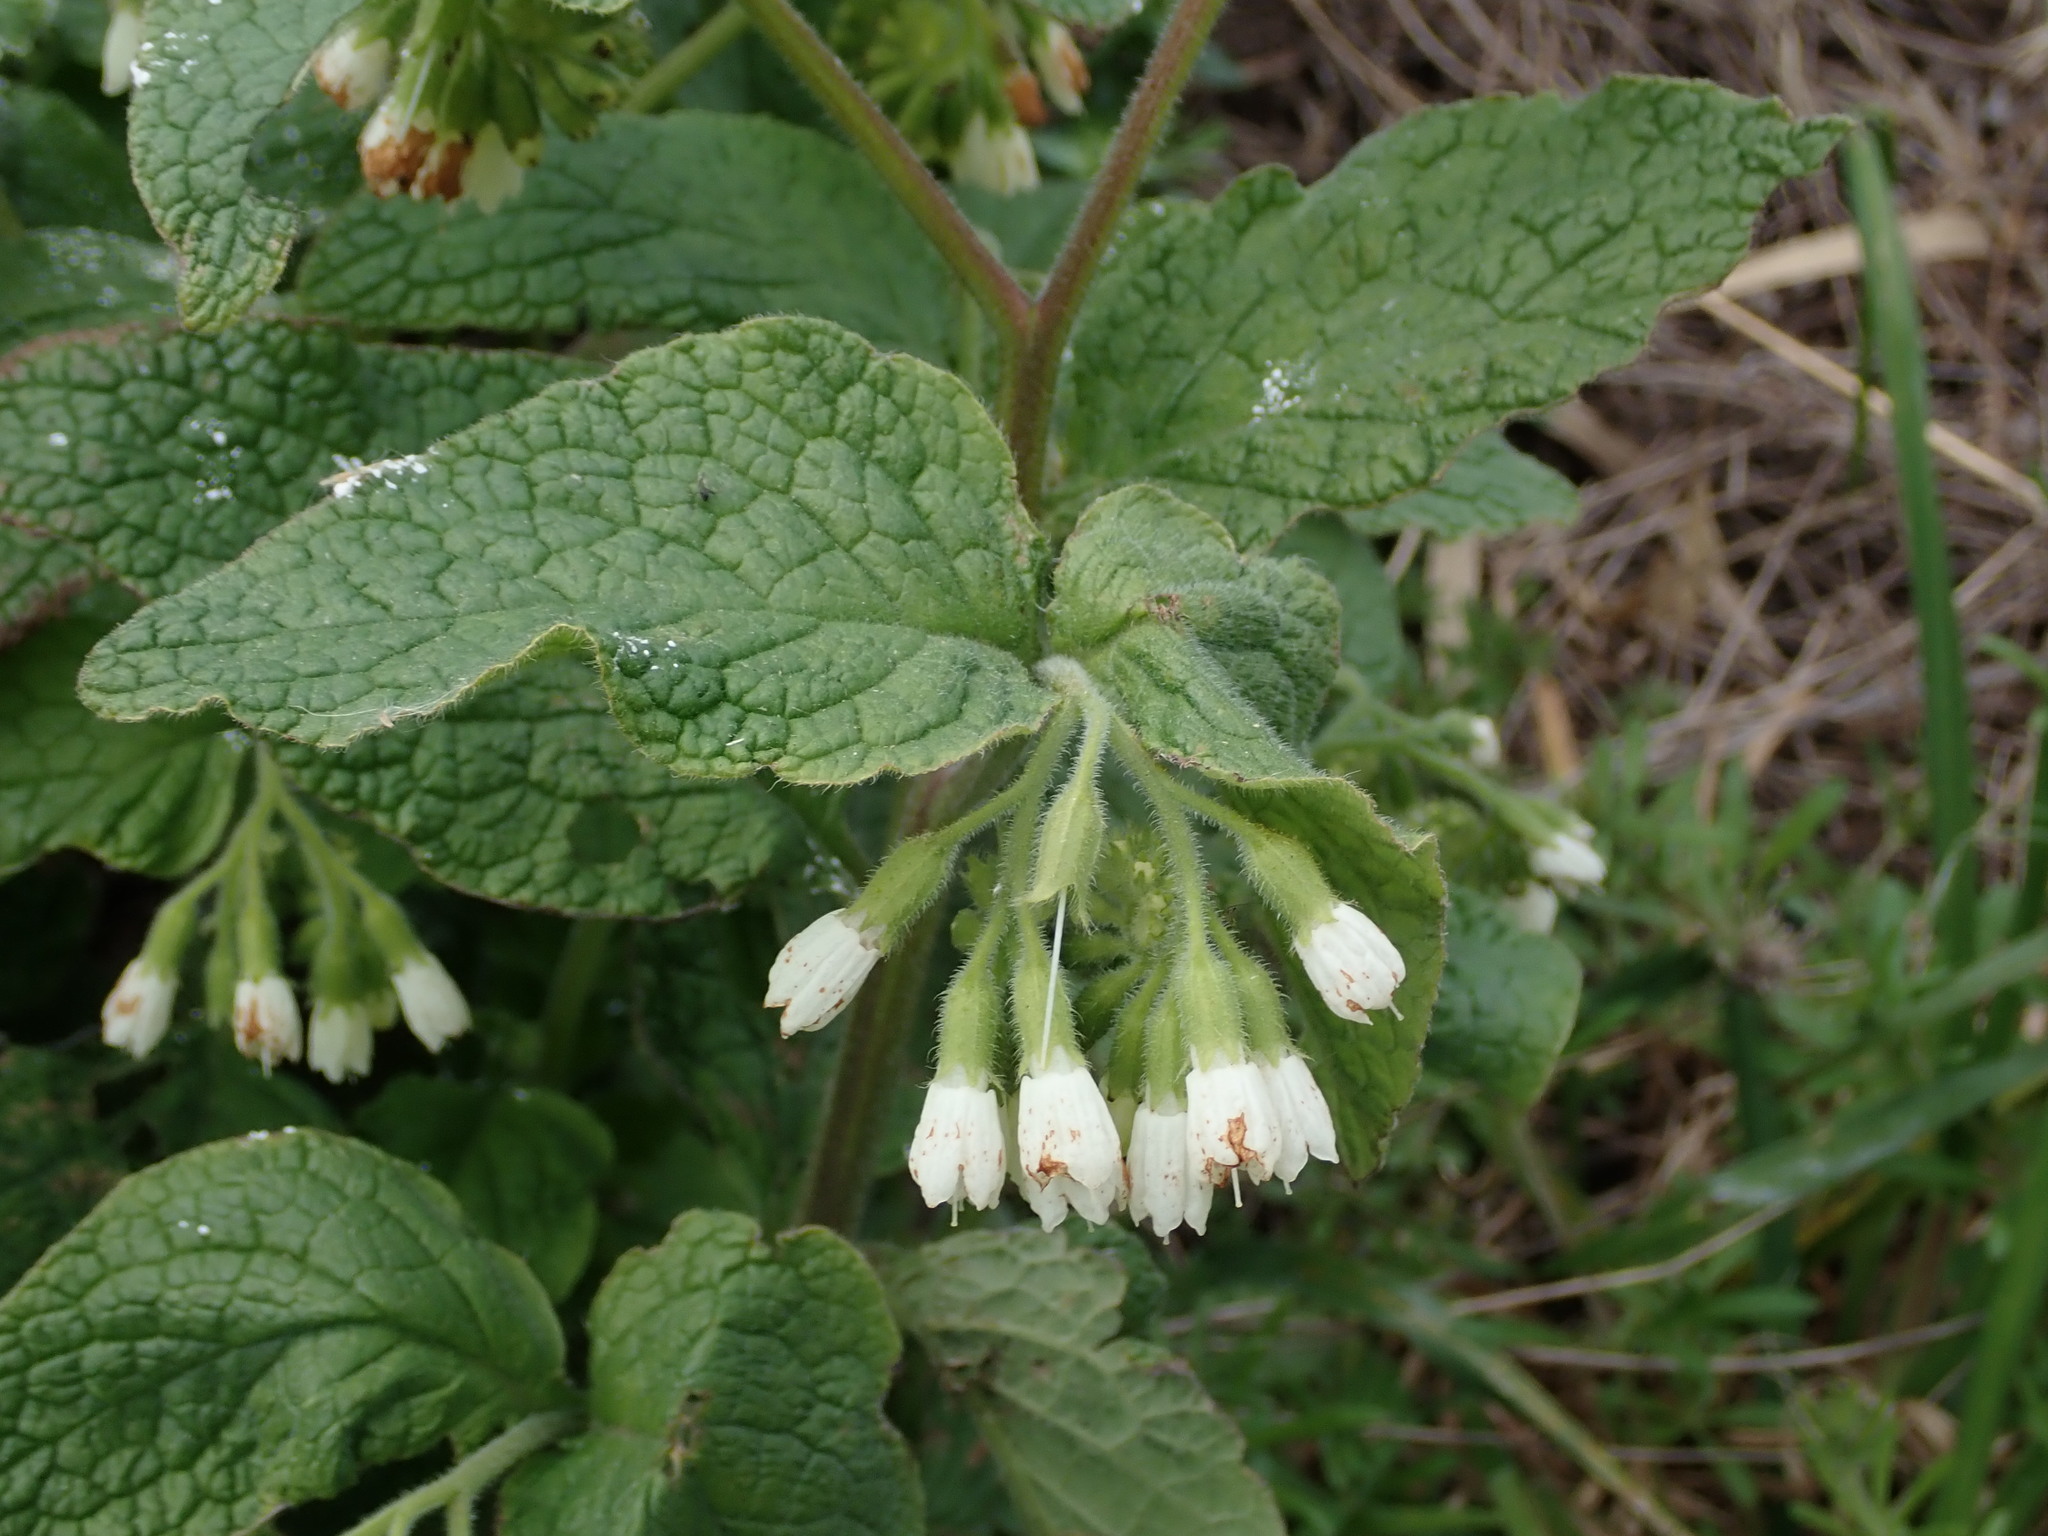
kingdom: Plantae
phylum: Tracheophyta
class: Magnoliopsida
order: Boraginales
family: Boraginaceae
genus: Symphytum
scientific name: Symphytum orientale
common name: White comfrey
